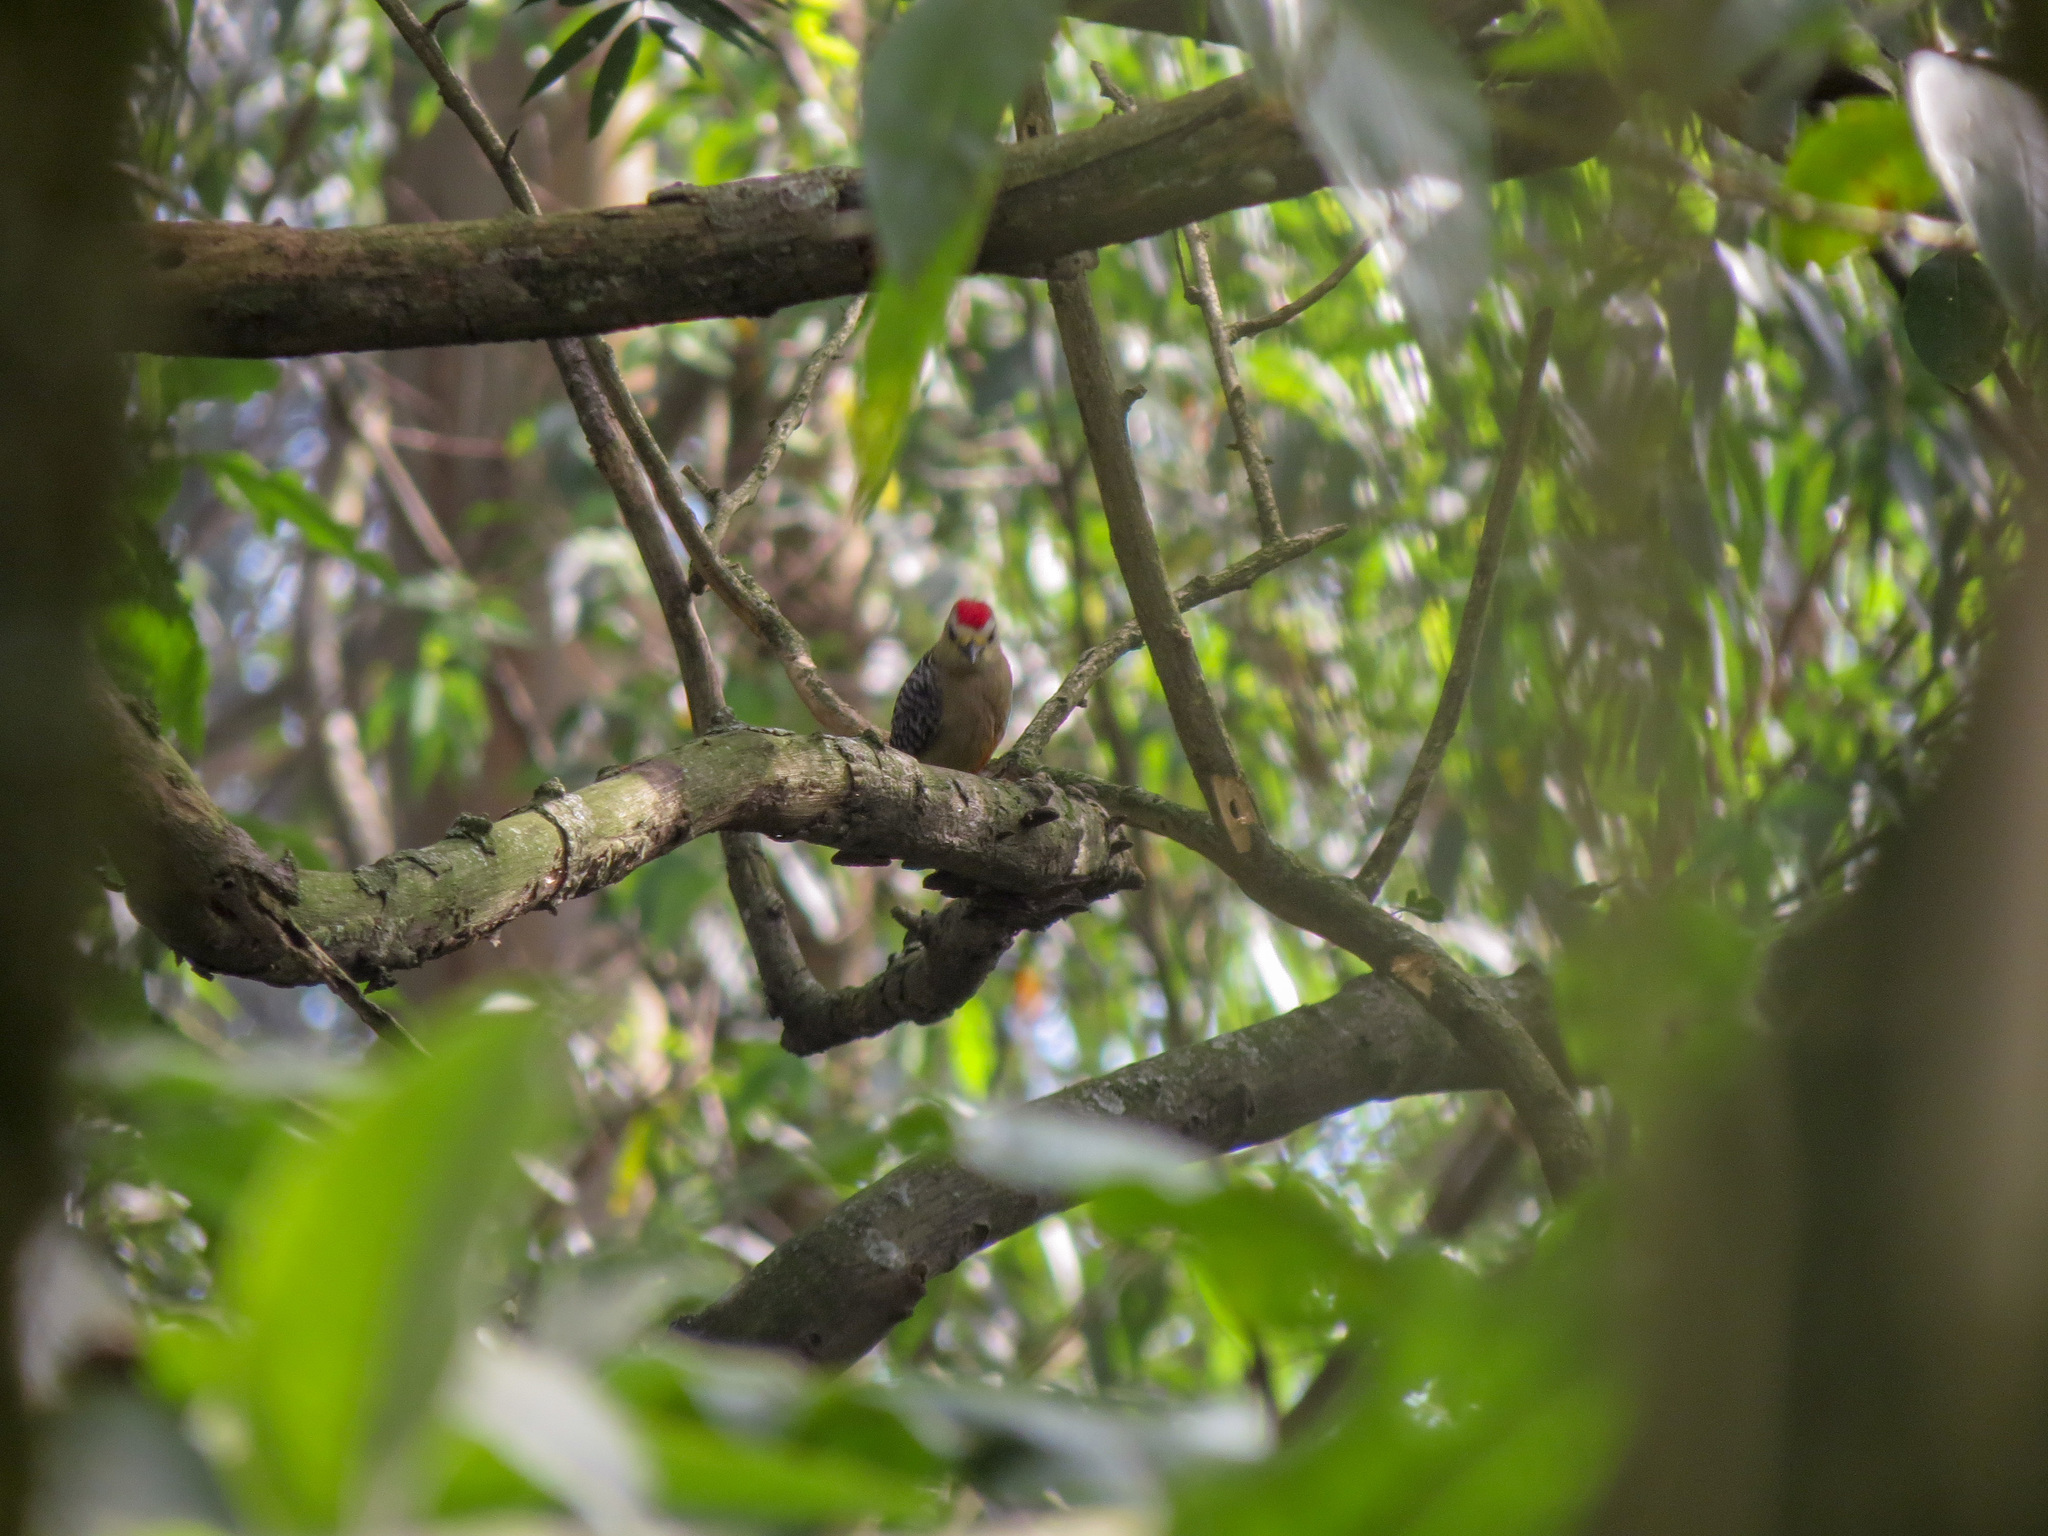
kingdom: Animalia
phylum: Chordata
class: Aves
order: Piciformes
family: Picidae
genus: Melanerpes
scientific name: Melanerpes rubricapillus
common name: Red-crowned woodpecker
